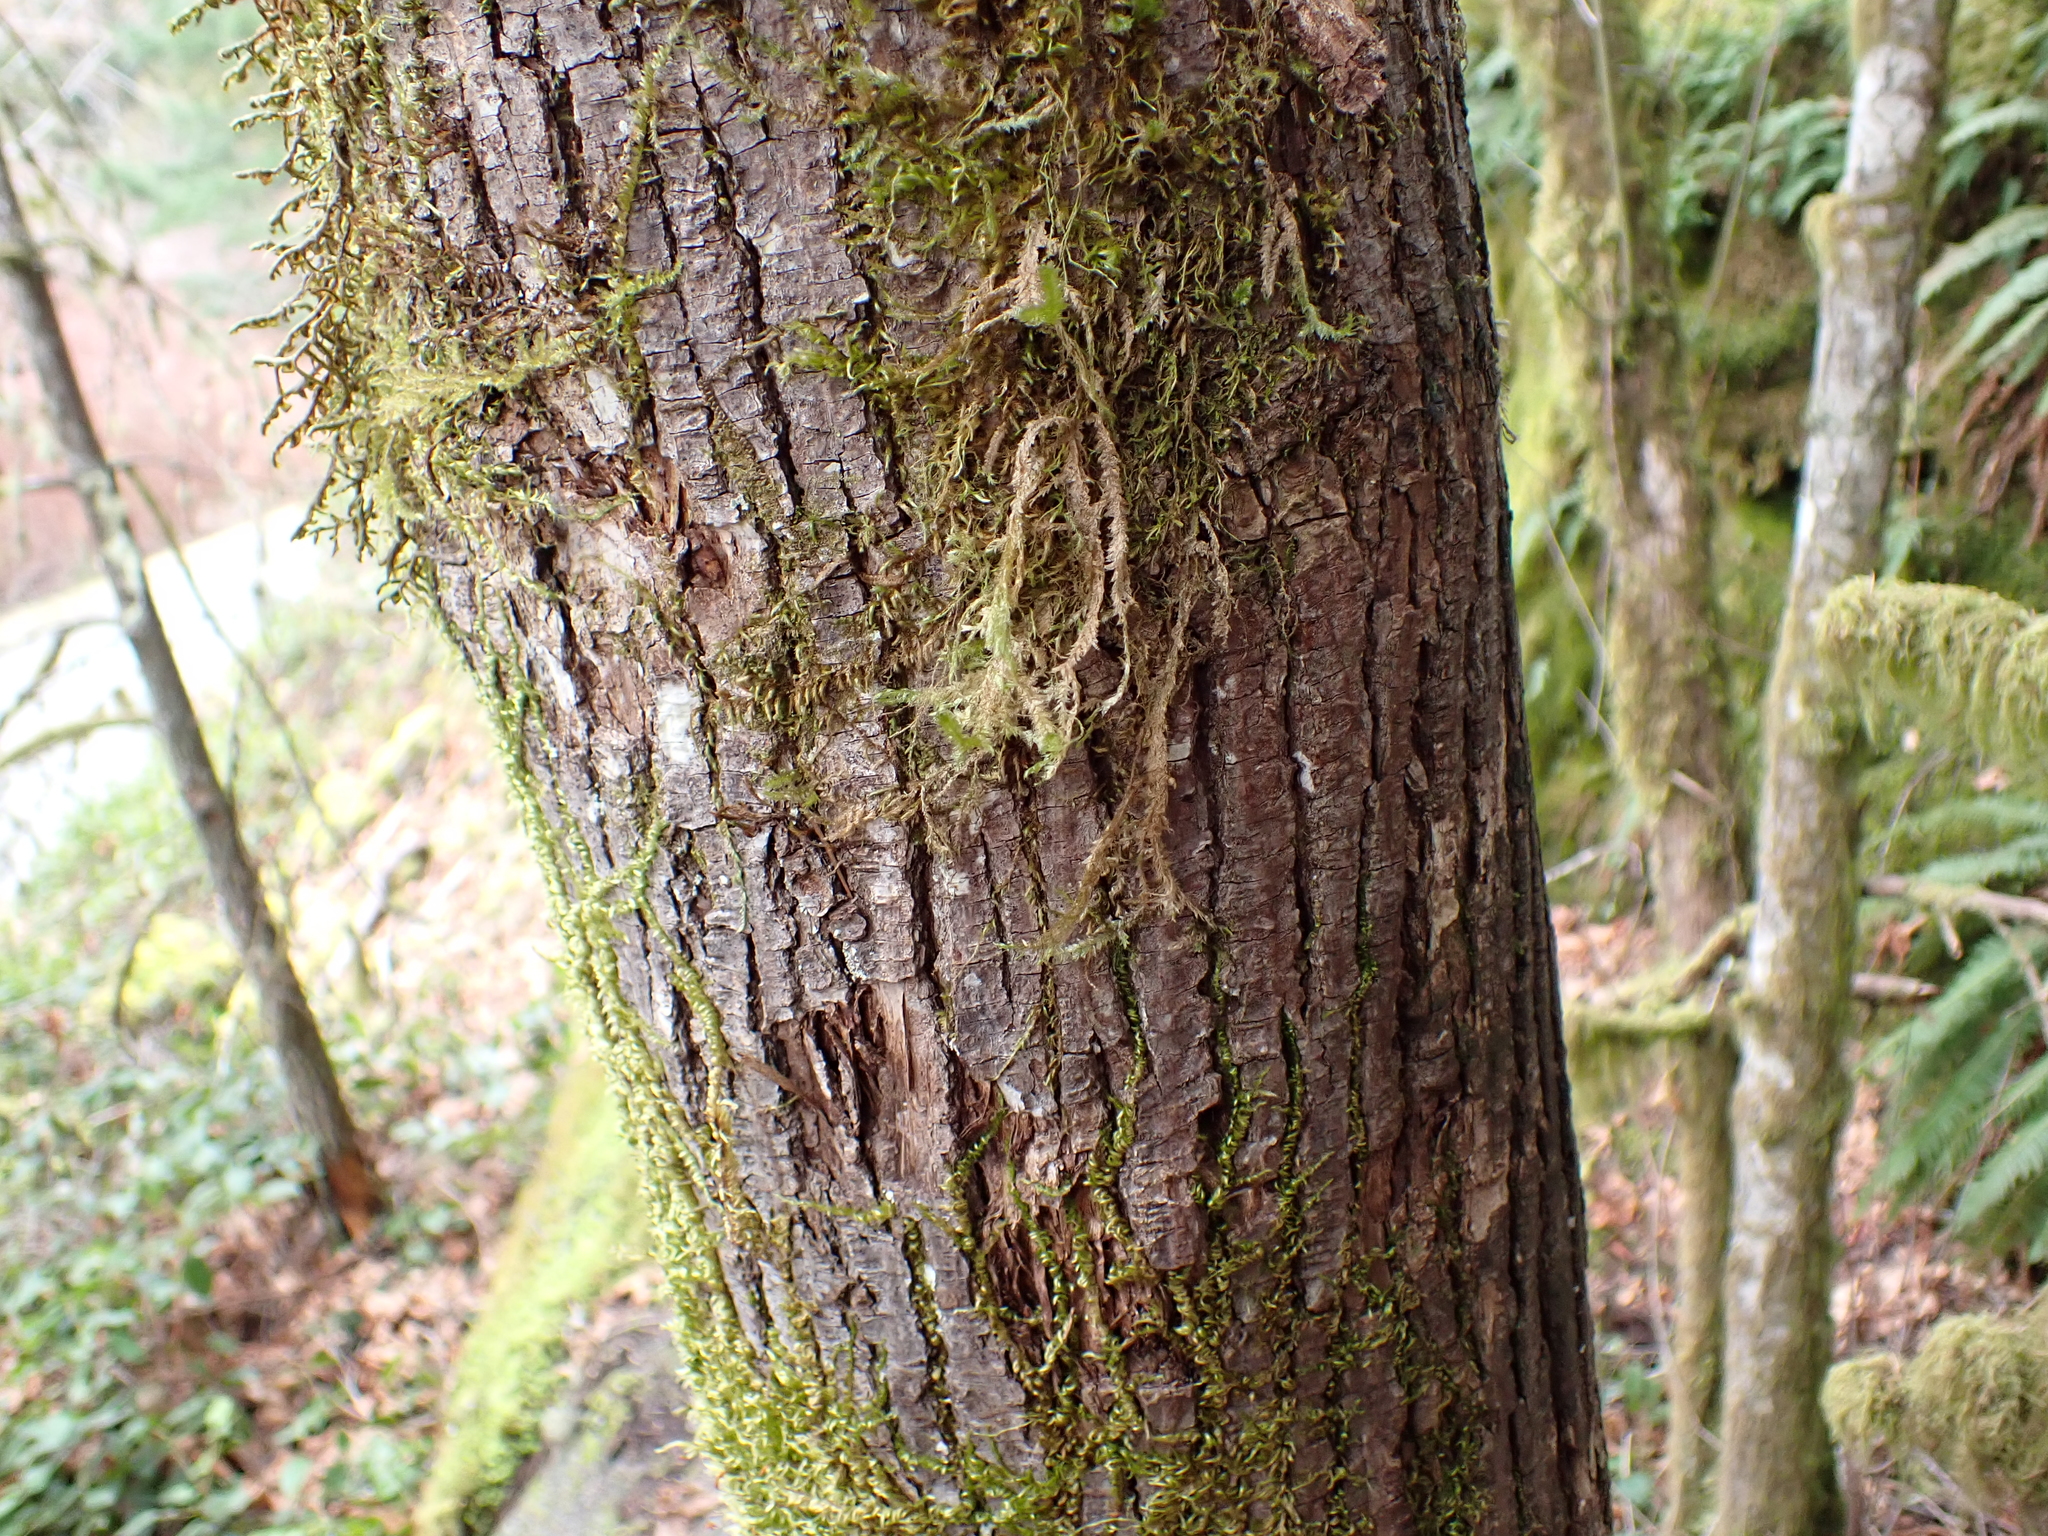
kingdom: Plantae
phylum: Bryophyta
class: Bryopsida
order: Hypnales
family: Neckeraceae
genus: Neckera
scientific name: Neckera douglasii
